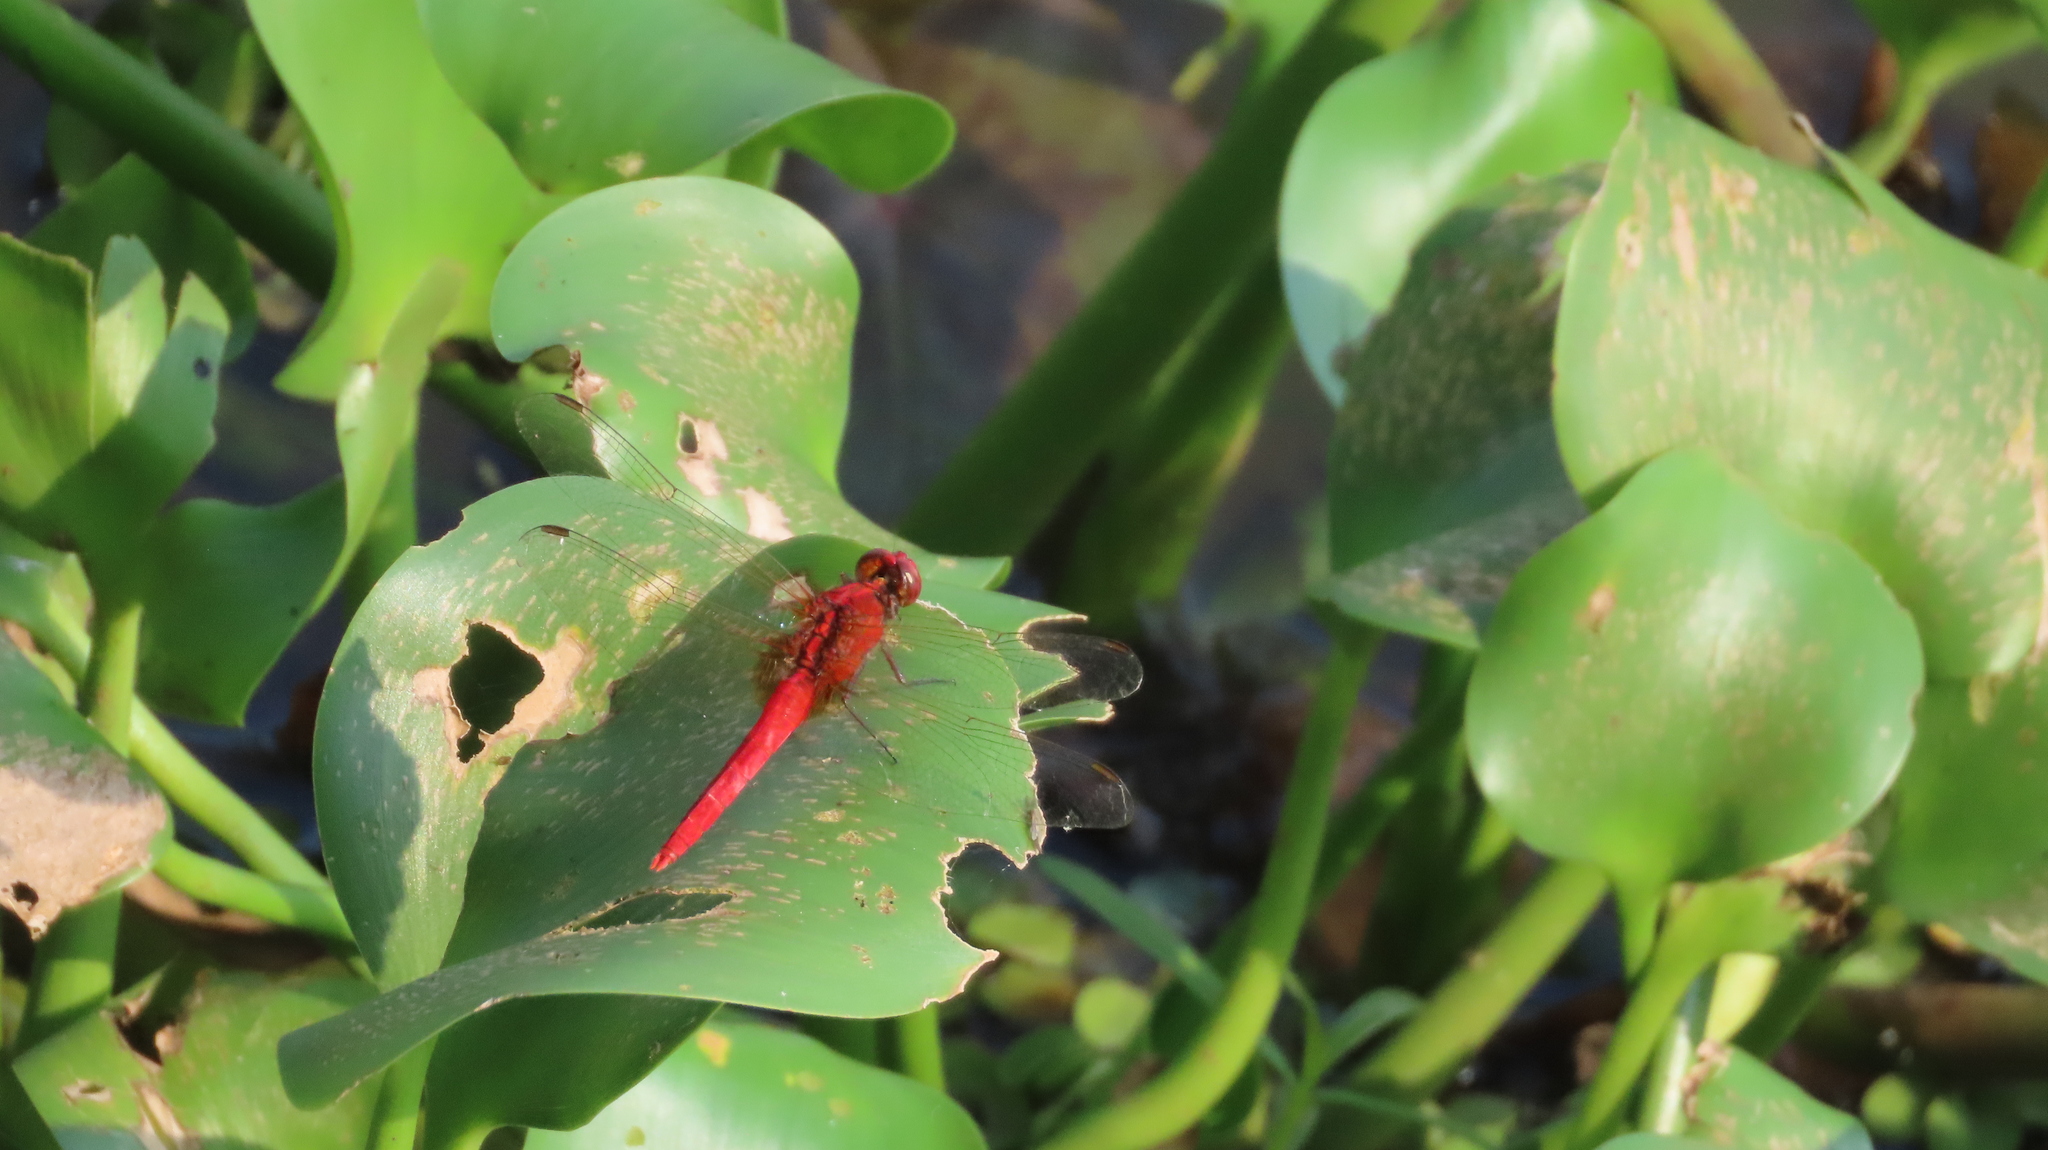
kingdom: Animalia
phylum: Arthropoda
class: Insecta
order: Odonata
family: Libellulidae
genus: Rhodothemis
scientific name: Rhodothemis rufa
